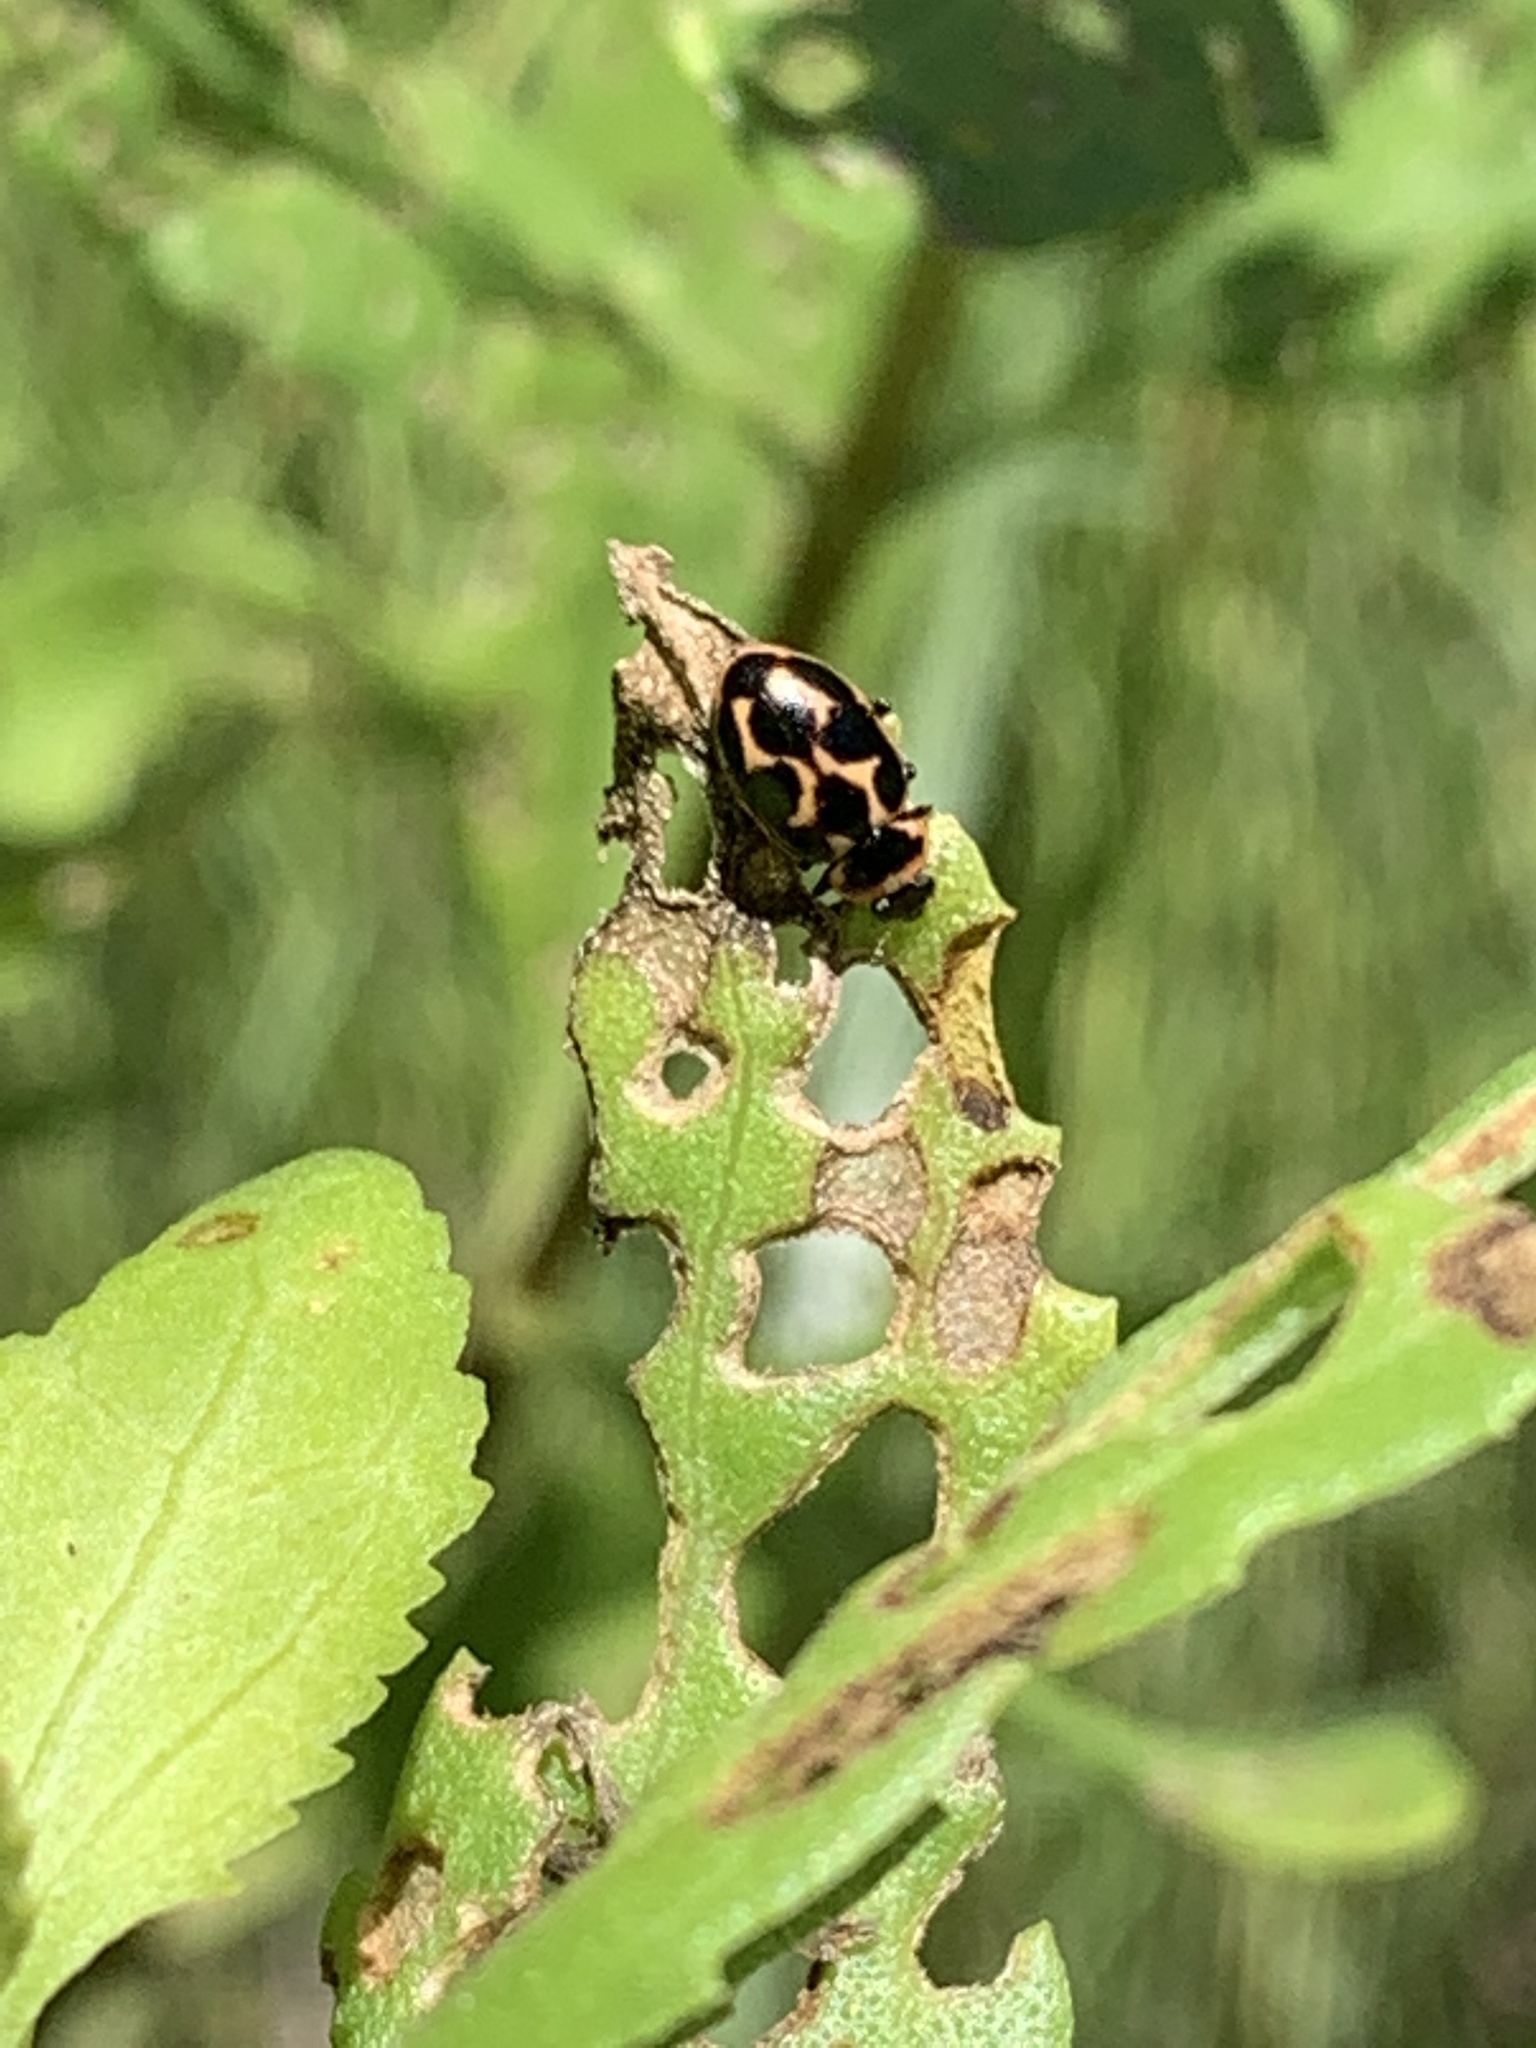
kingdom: Animalia
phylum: Arthropoda
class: Insecta
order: Coleoptera
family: Coccinellidae
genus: Naemia
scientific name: Naemia seriata
